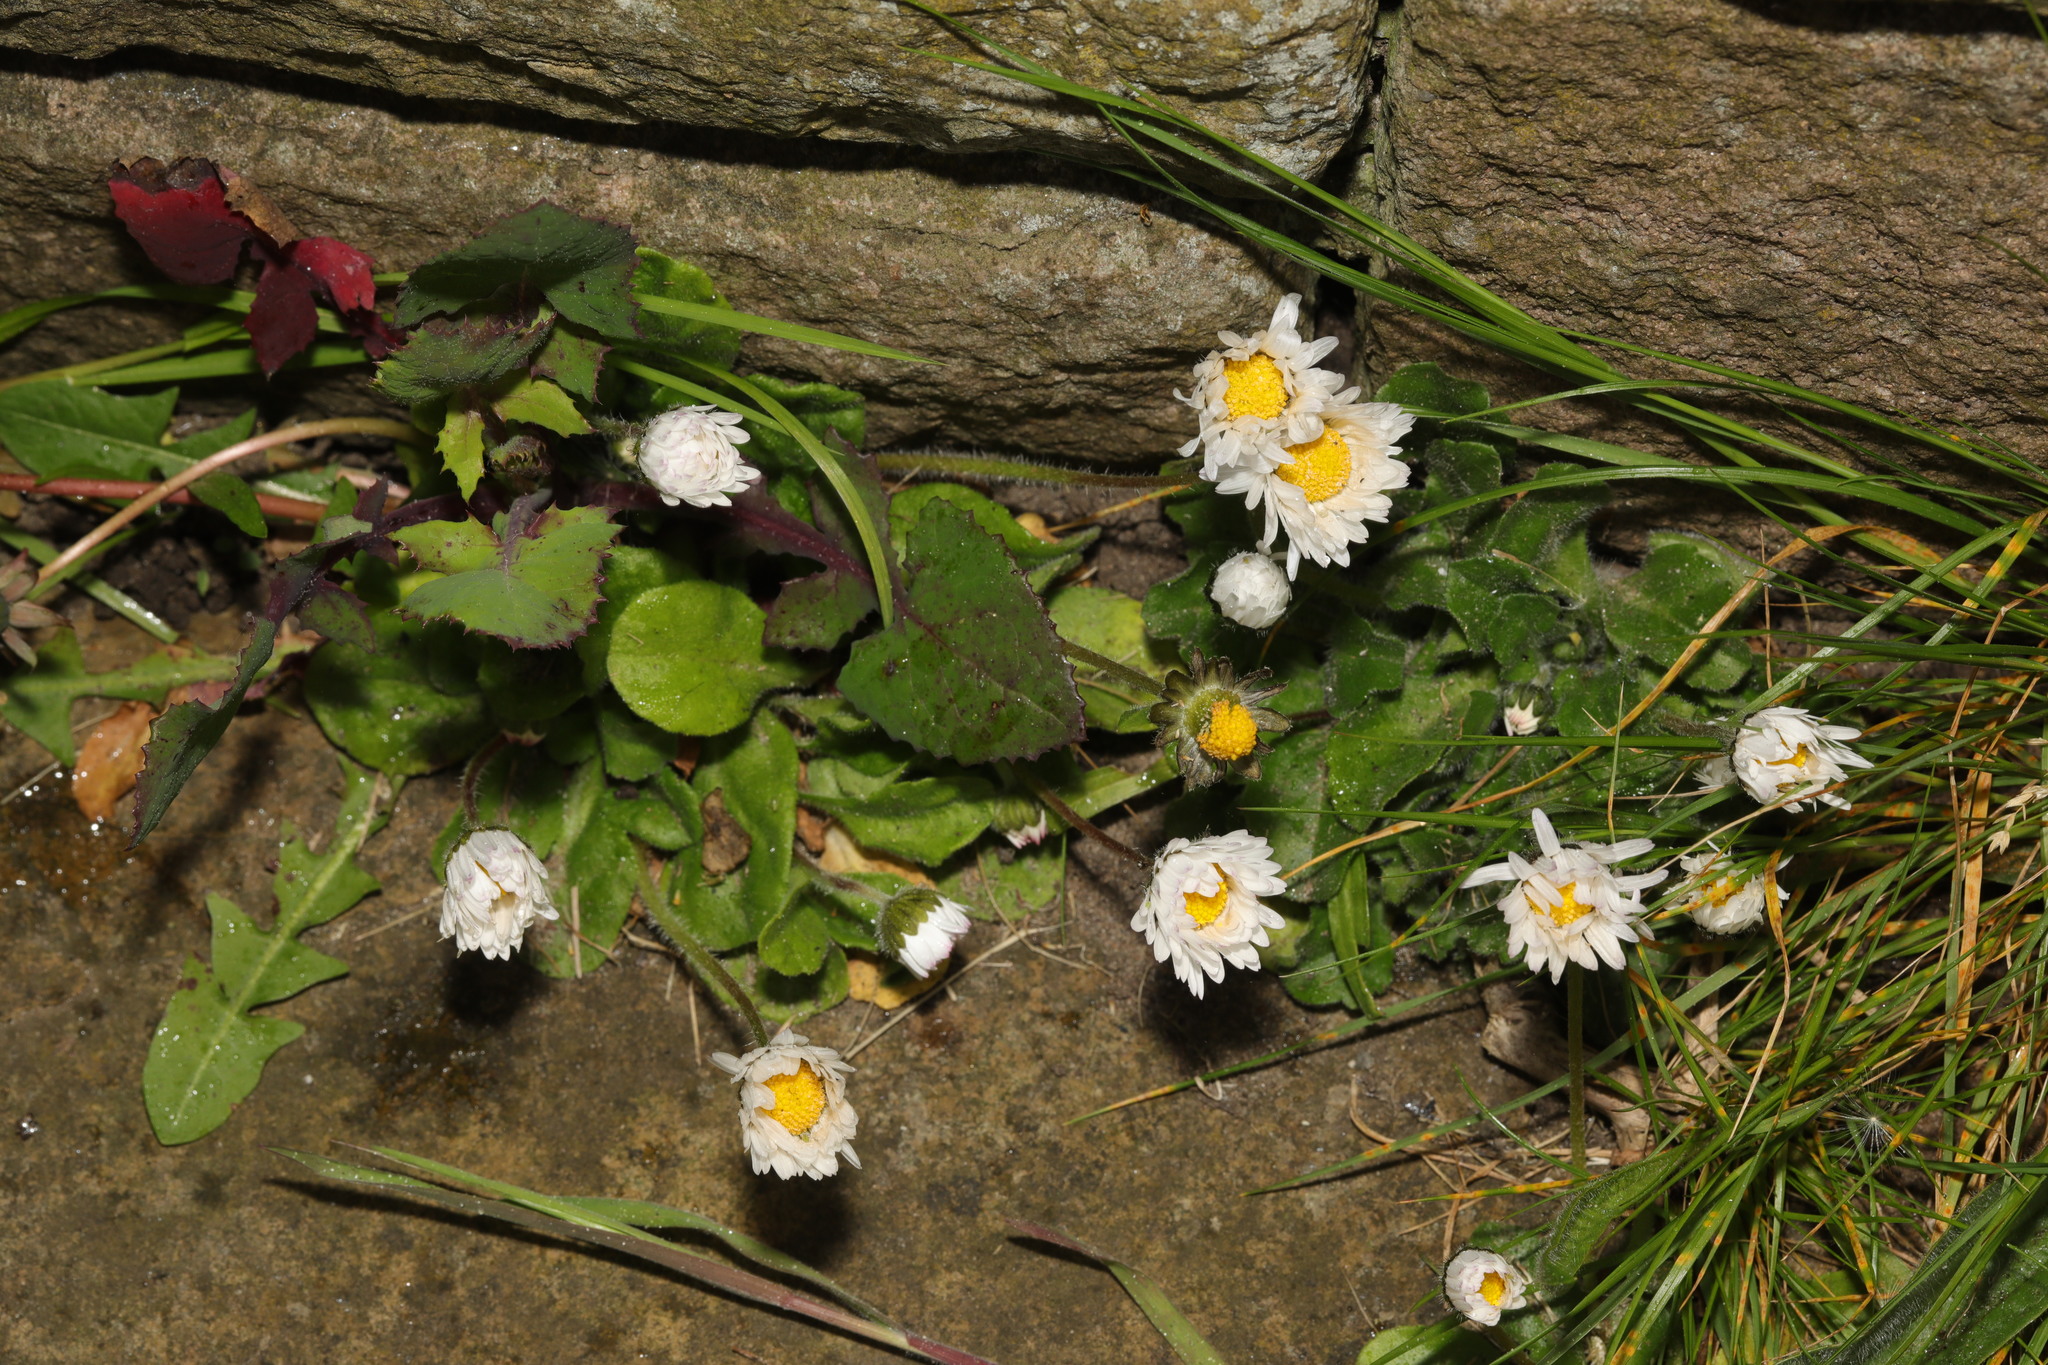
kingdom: Plantae
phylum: Tracheophyta
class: Magnoliopsida
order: Asterales
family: Asteraceae
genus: Bellis
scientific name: Bellis perennis
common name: Lawndaisy
